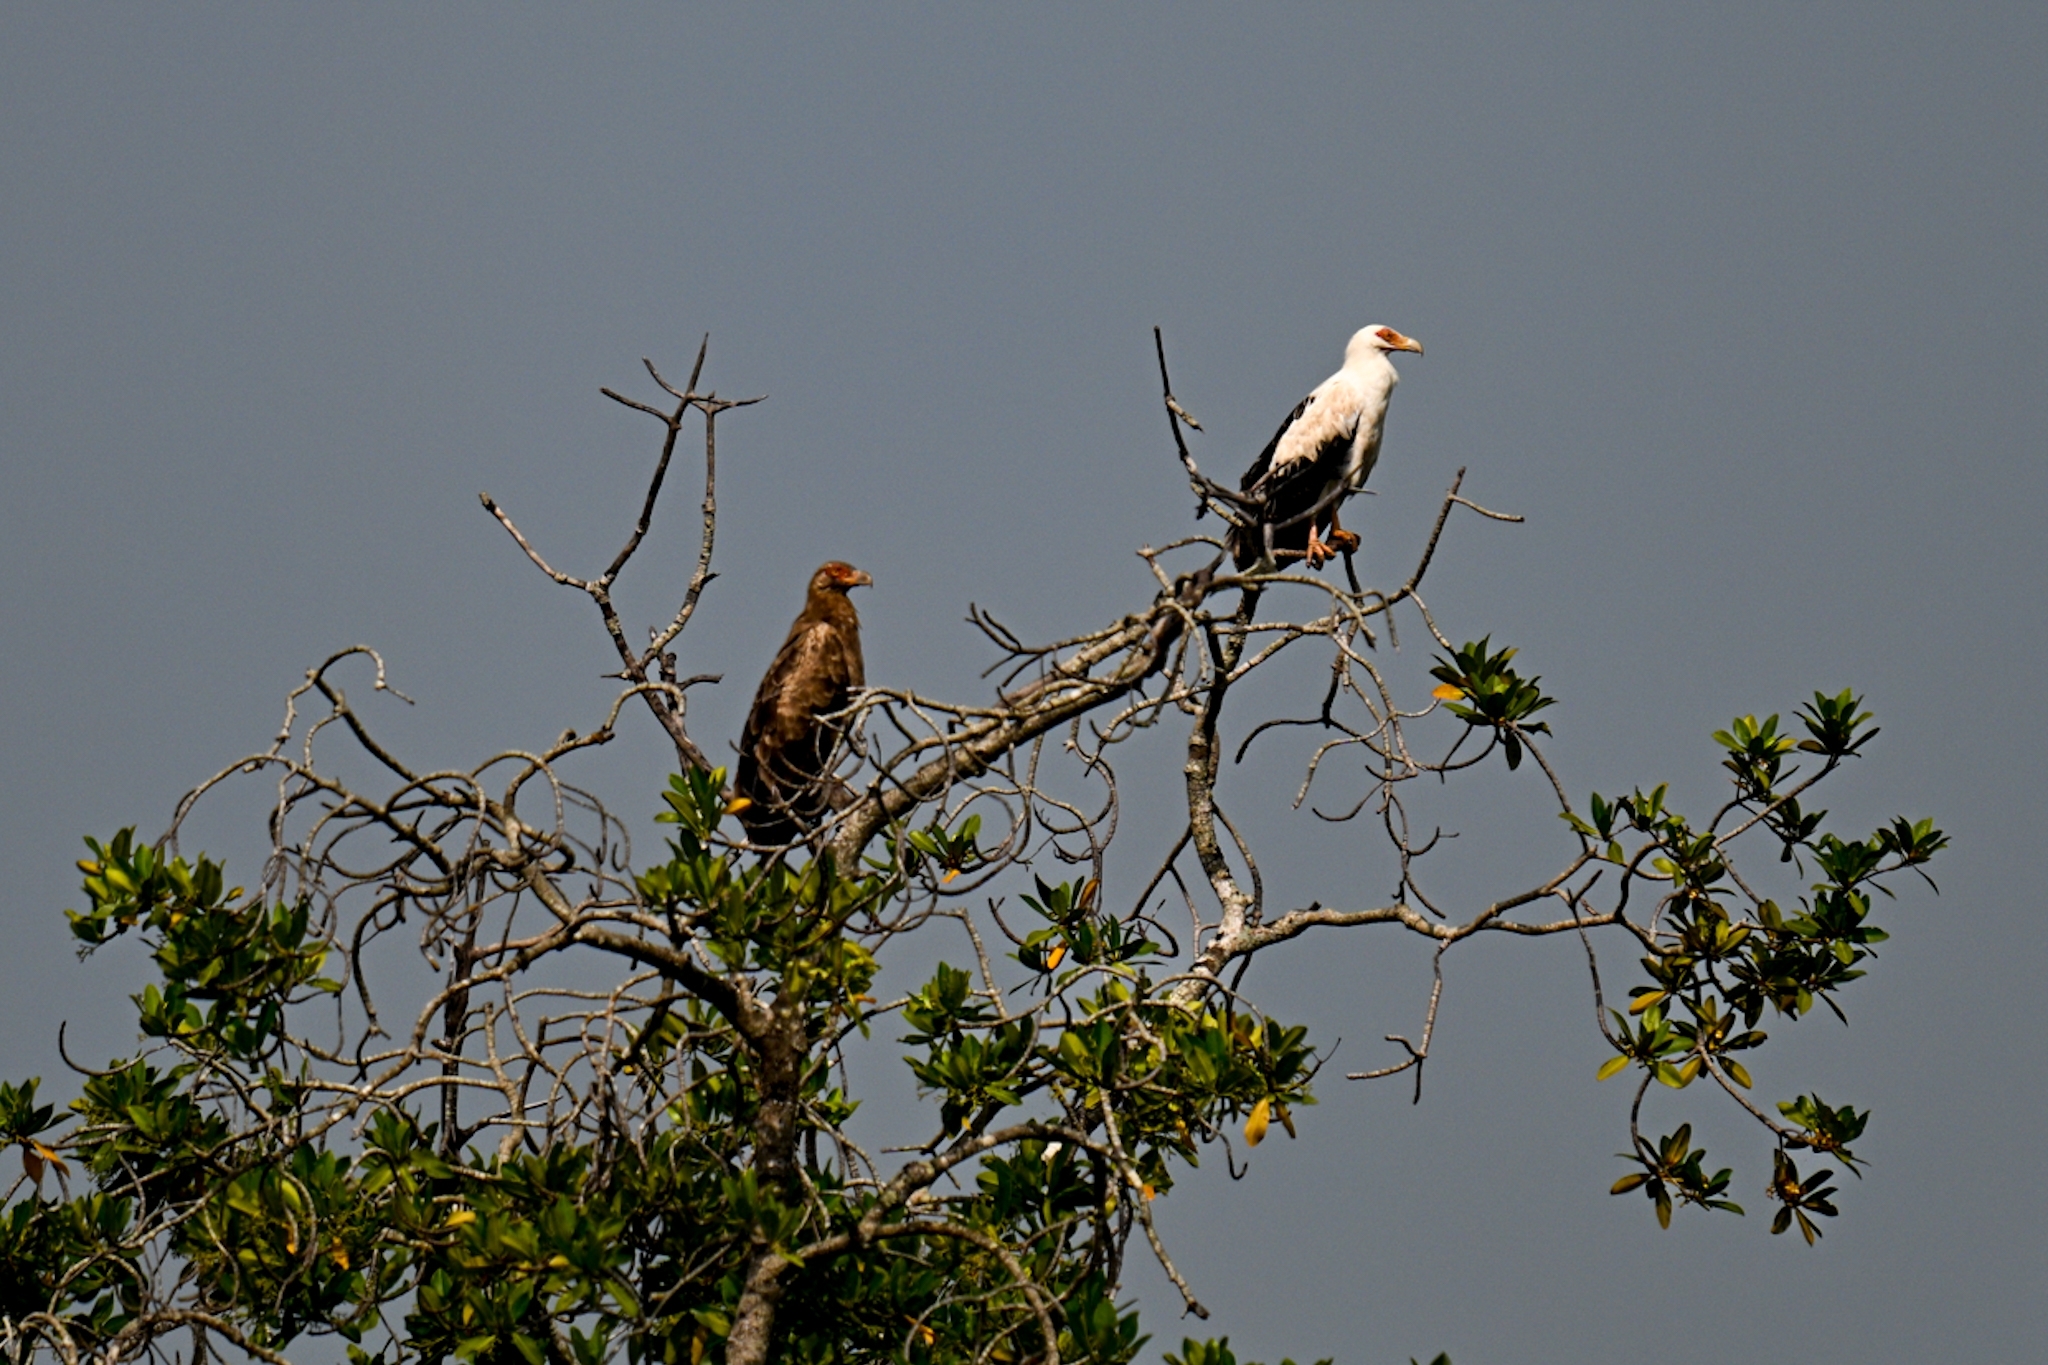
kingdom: Animalia
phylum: Chordata
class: Aves
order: Accipitriformes
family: Accipitridae
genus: Gypohierax
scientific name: Gypohierax angolensis
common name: Palm-nut vulture
